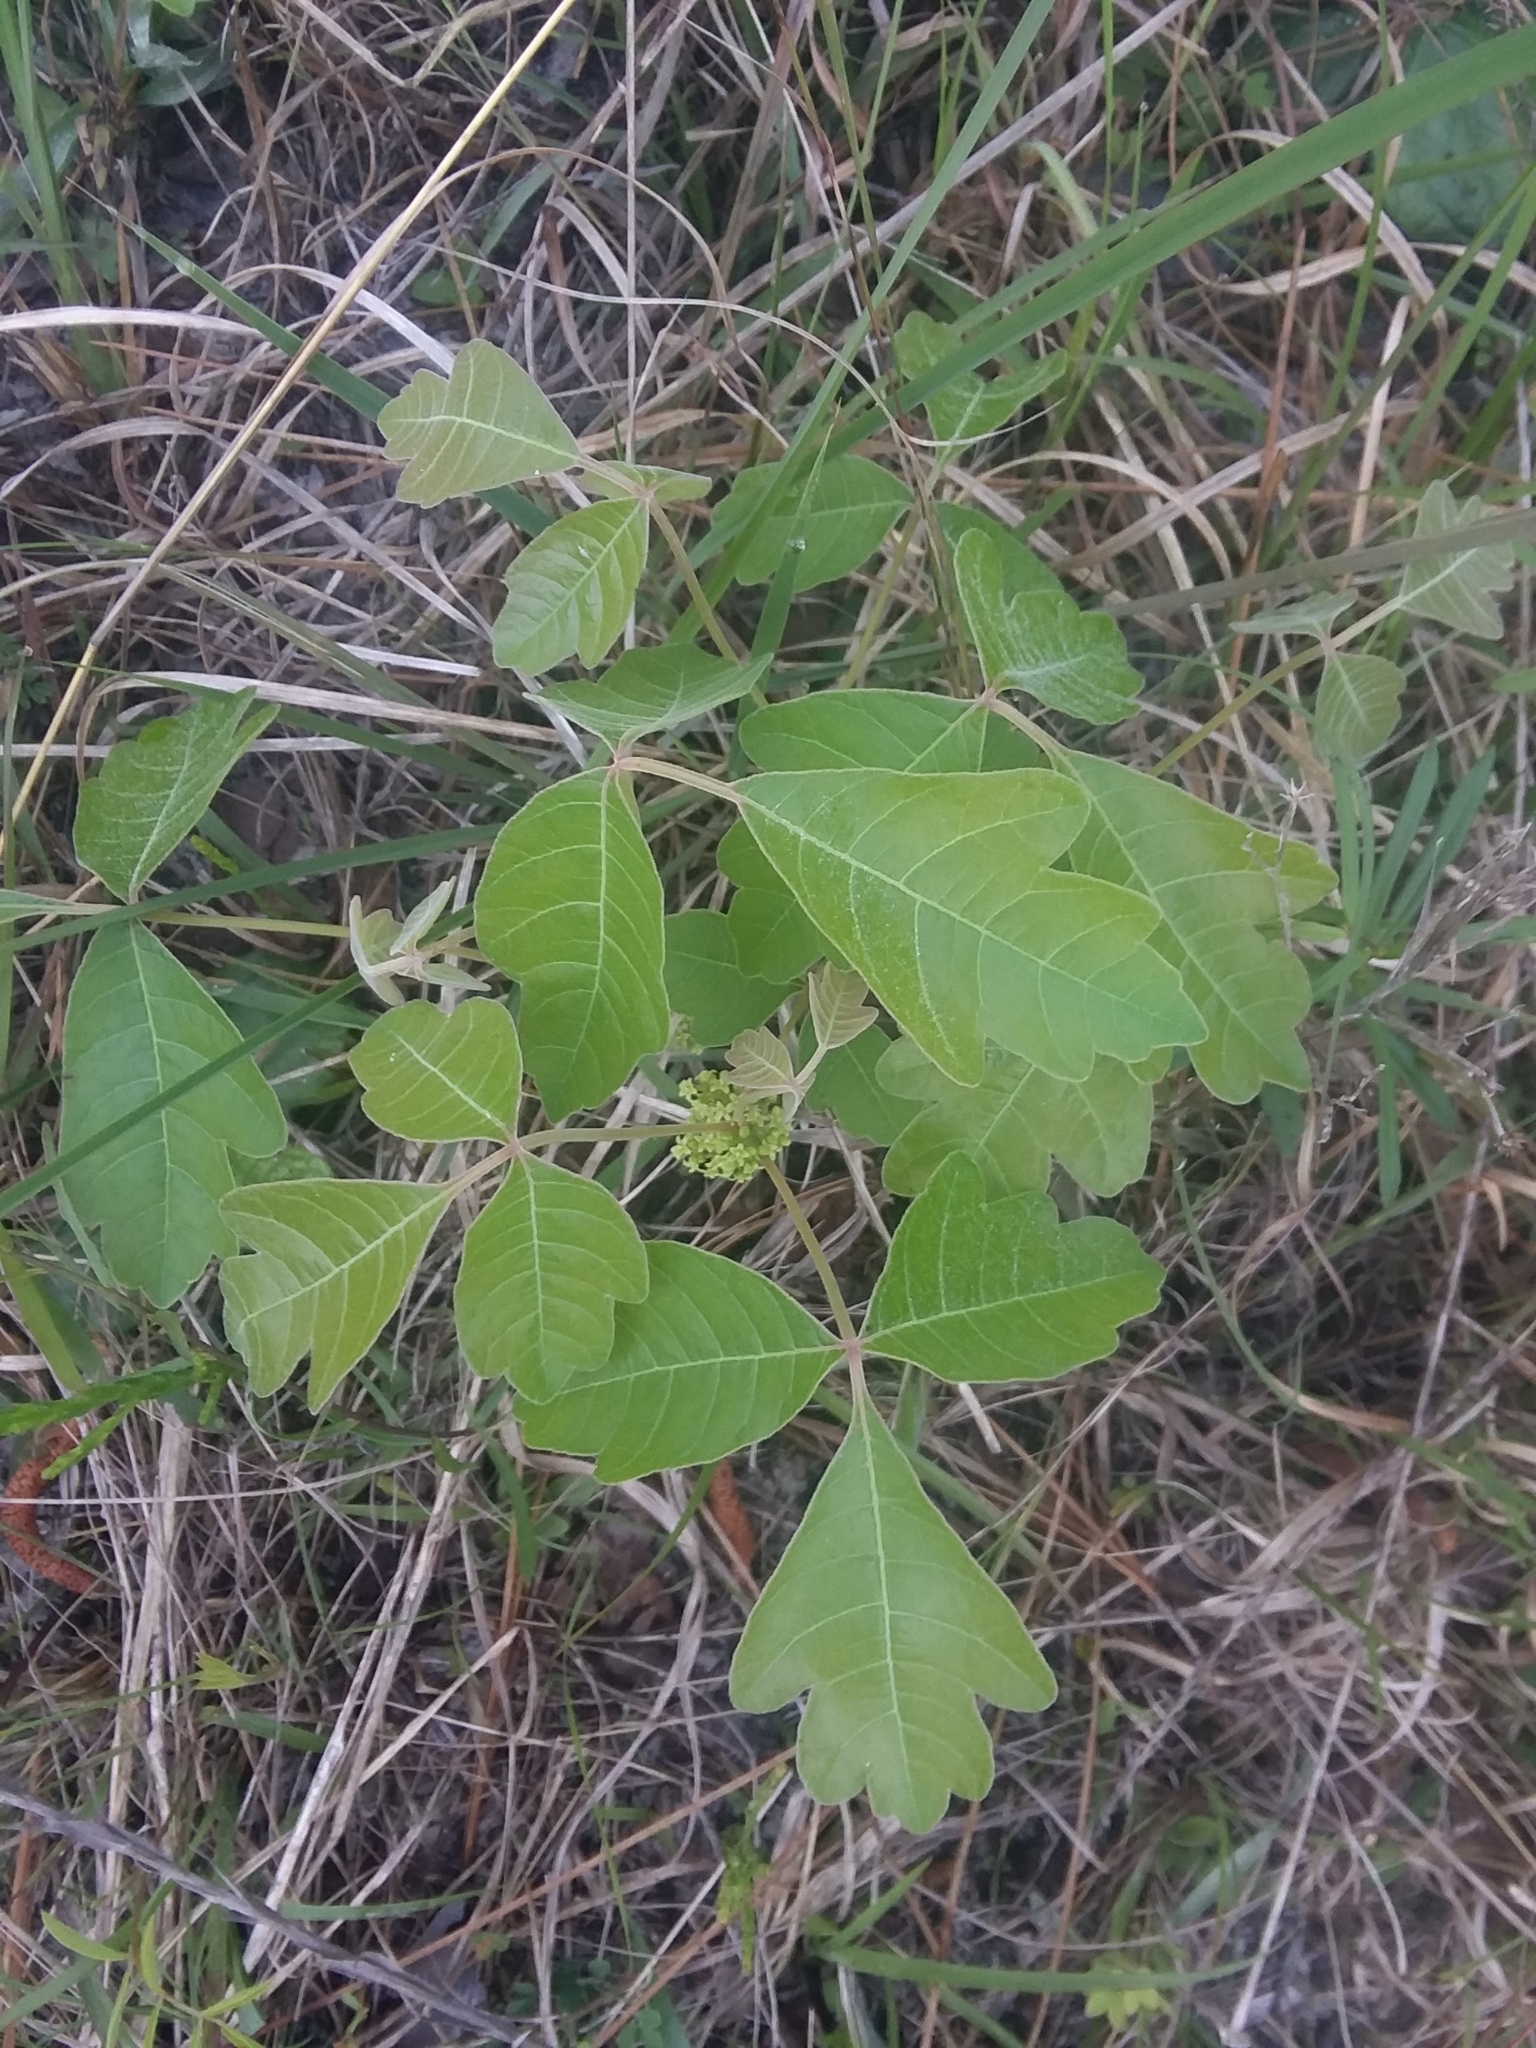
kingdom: Plantae
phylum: Tracheophyta
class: Magnoliopsida
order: Sapindales
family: Anacardiaceae
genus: Toxicodendron
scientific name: Toxicodendron pubescens
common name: Eastern poison-oak
